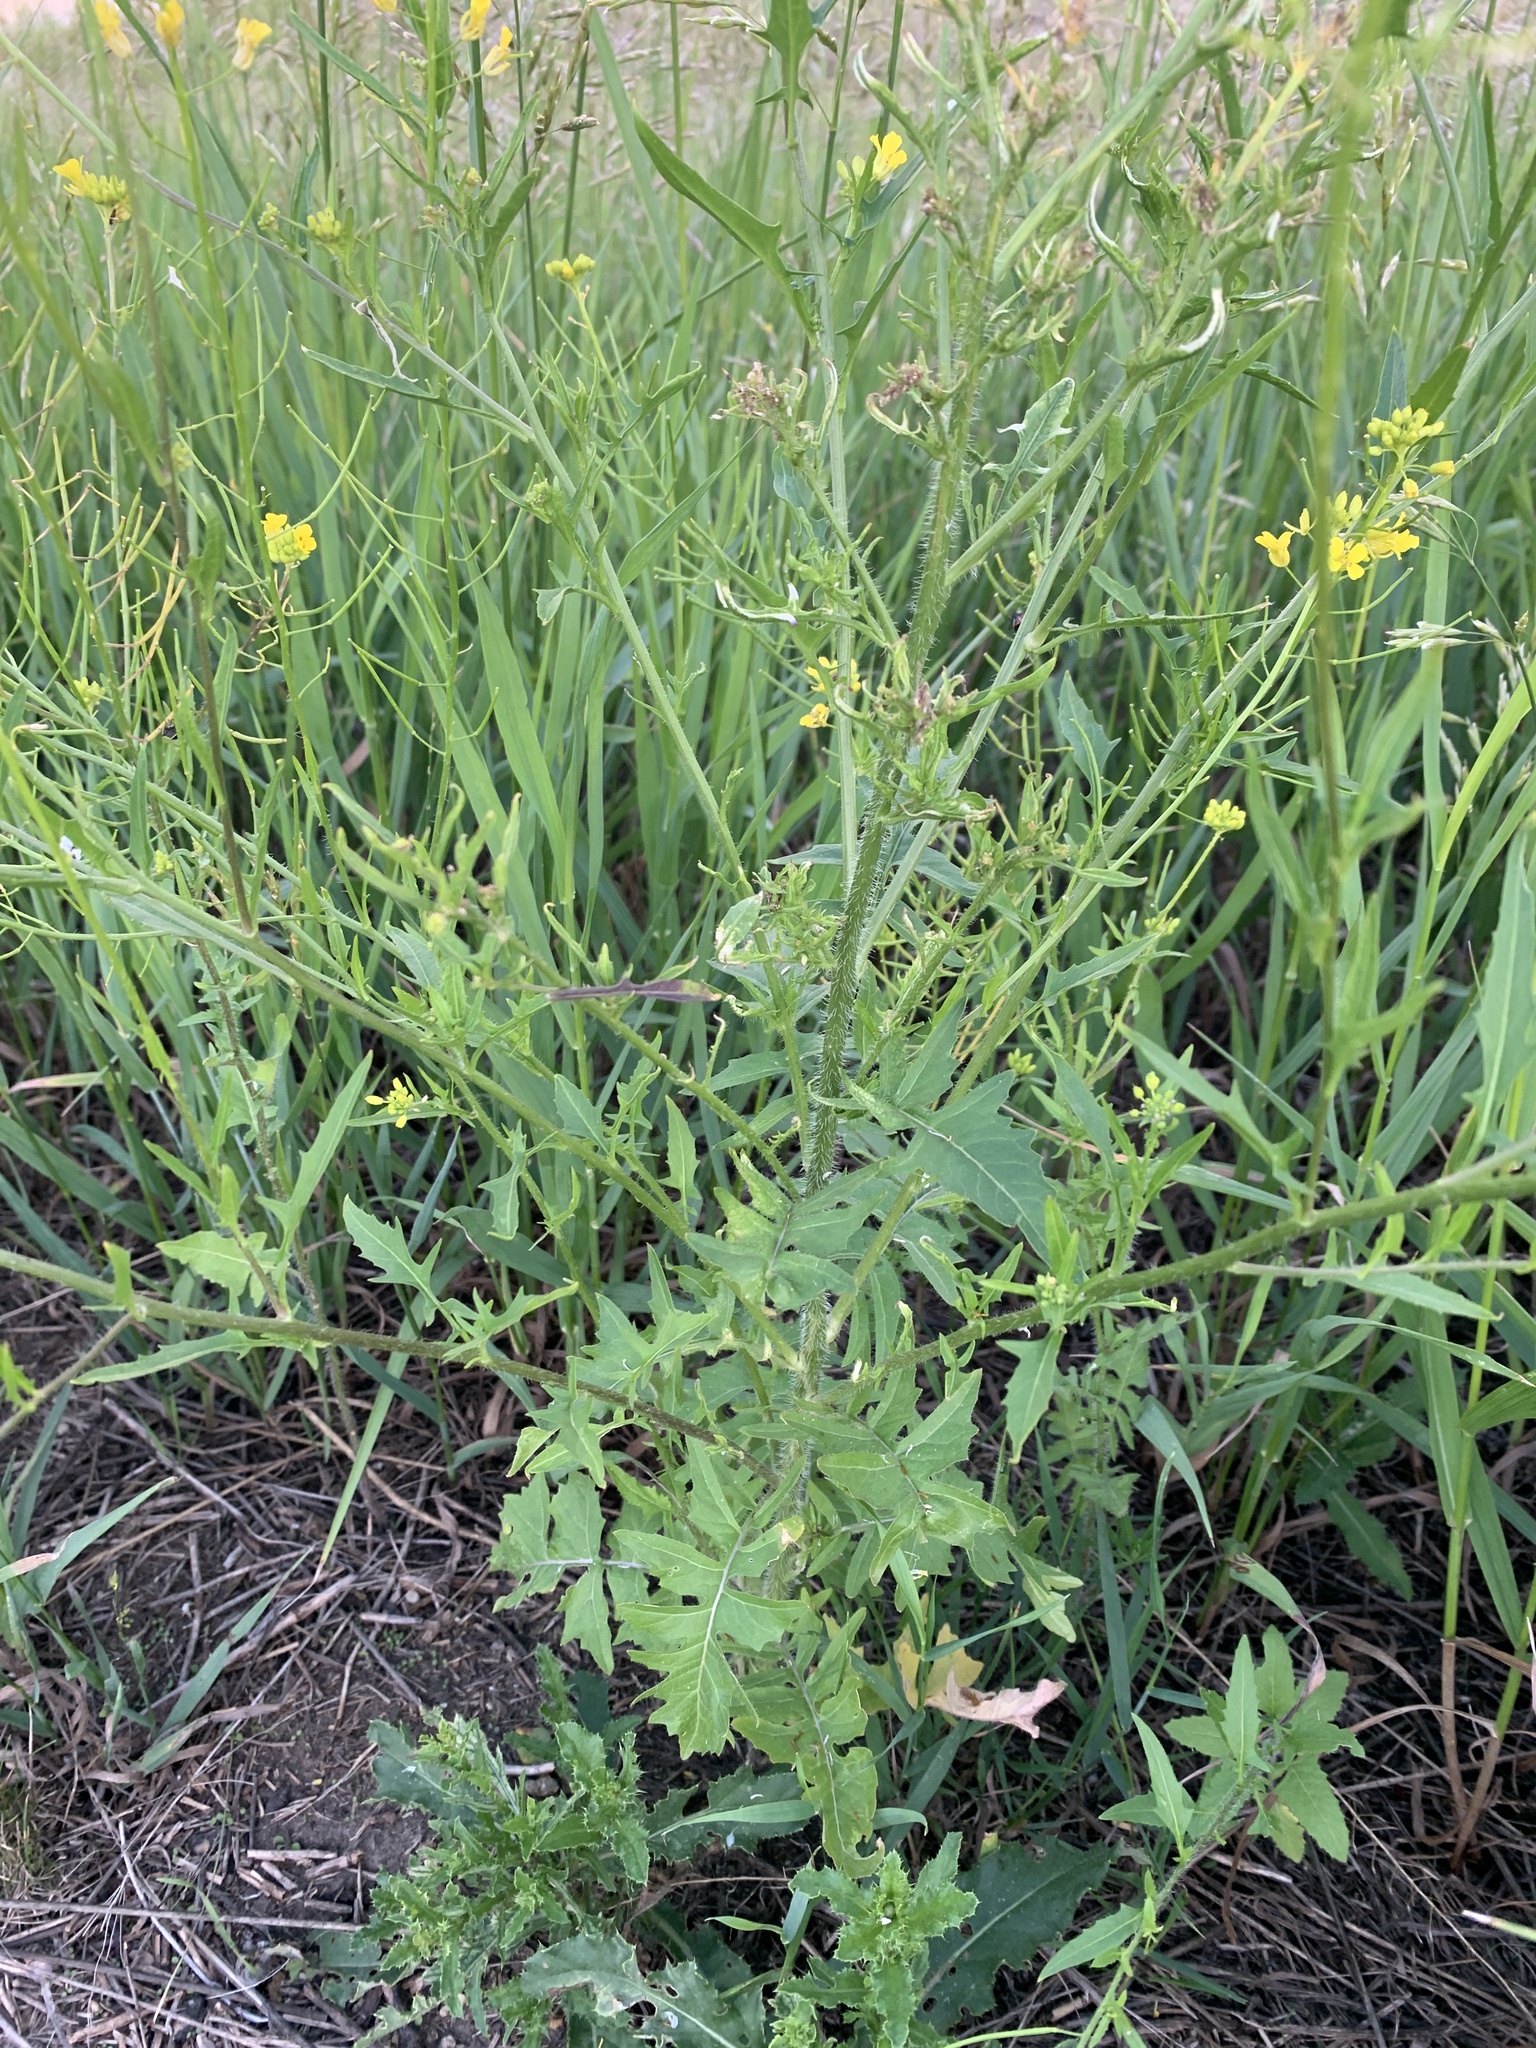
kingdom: Plantae
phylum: Tracheophyta
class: Magnoliopsida
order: Brassicales
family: Brassicaceae
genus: Sisymbrium
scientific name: Sisymbrium loeselii
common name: False london-rocket
